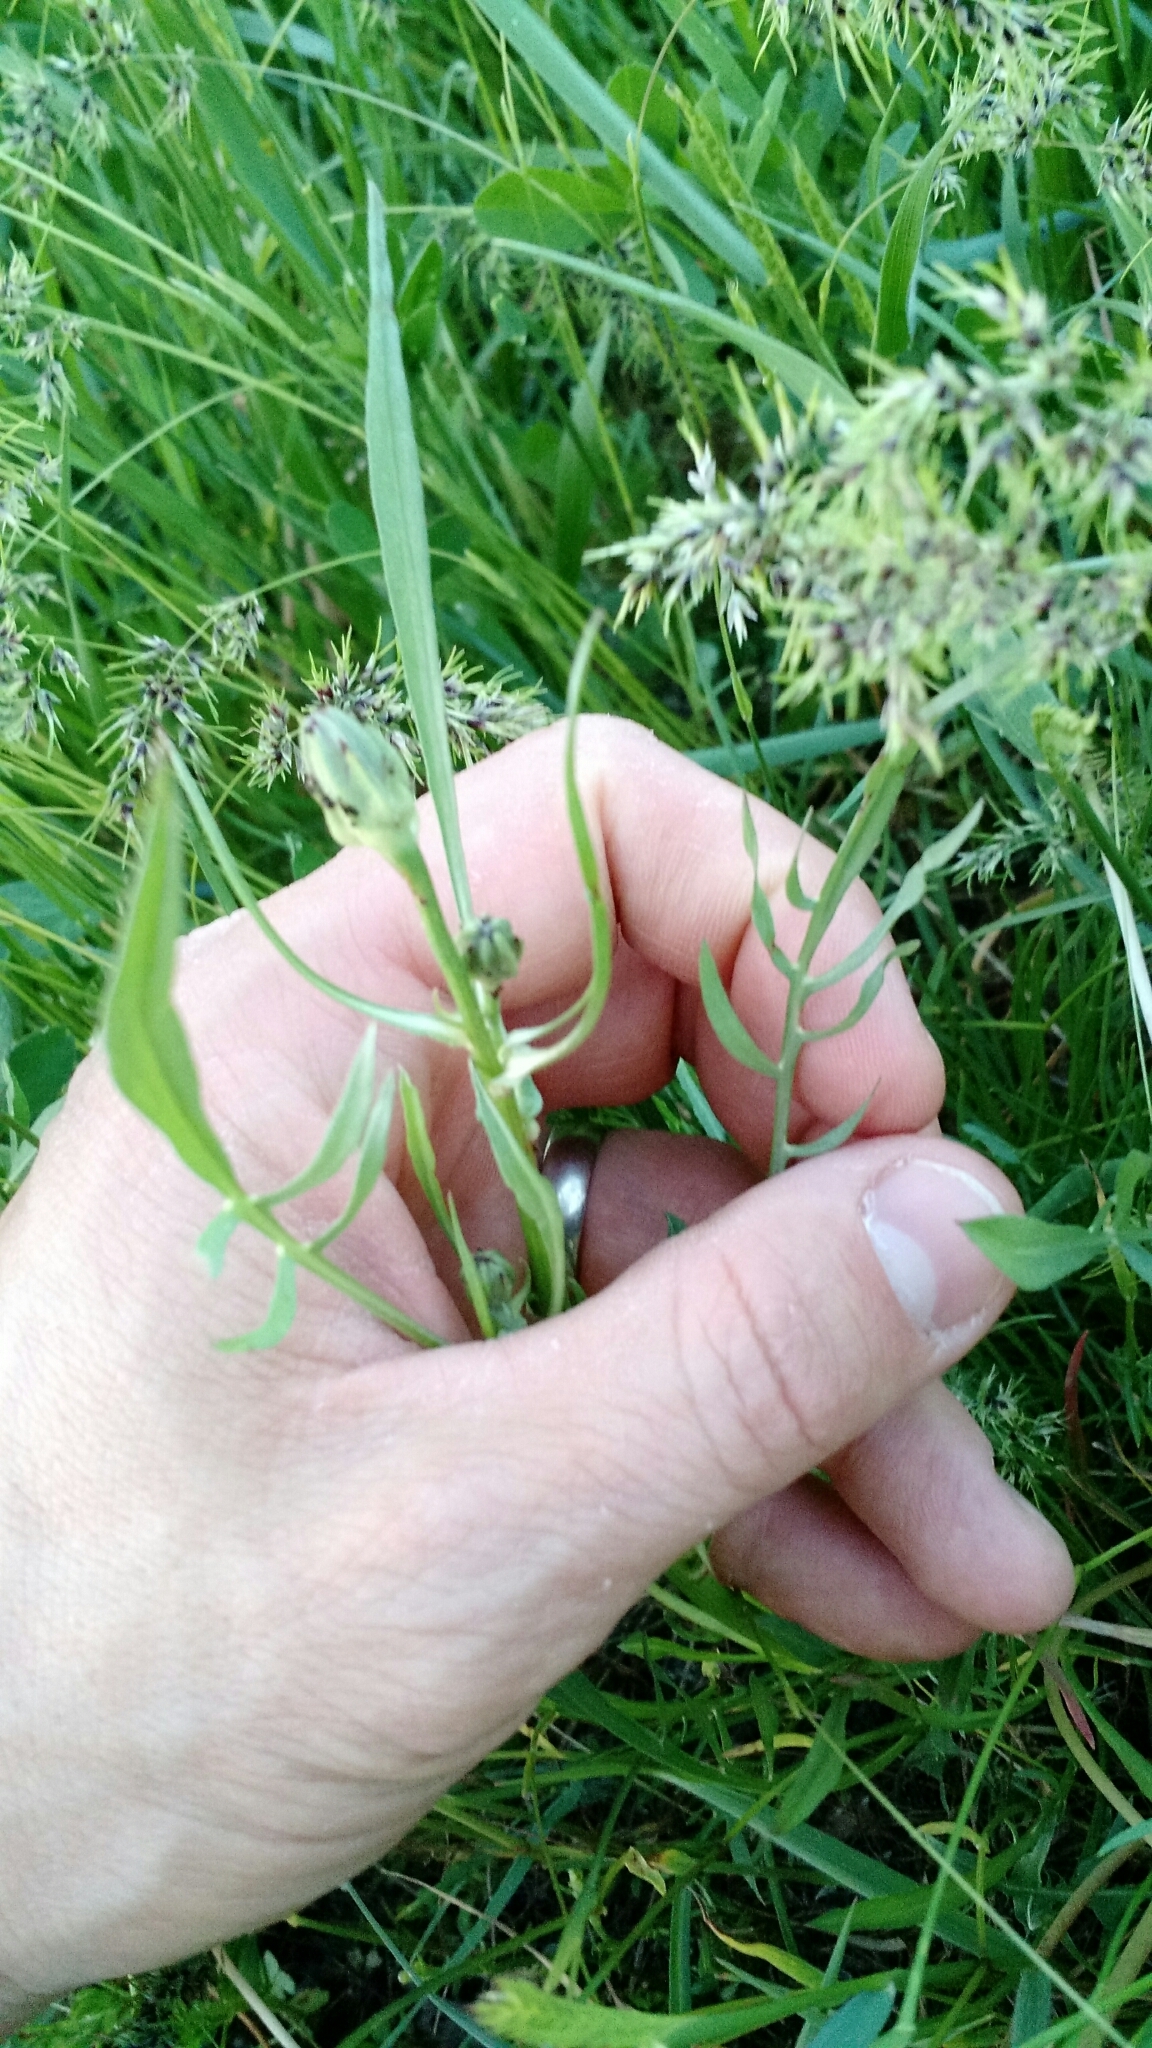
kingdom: Plantae
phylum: Tracheophyta
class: Magnoliopsida
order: Asterales
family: Asteraceae
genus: Scorzonera
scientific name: Scorzonera laciniata
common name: Cutleaf vipergrass
